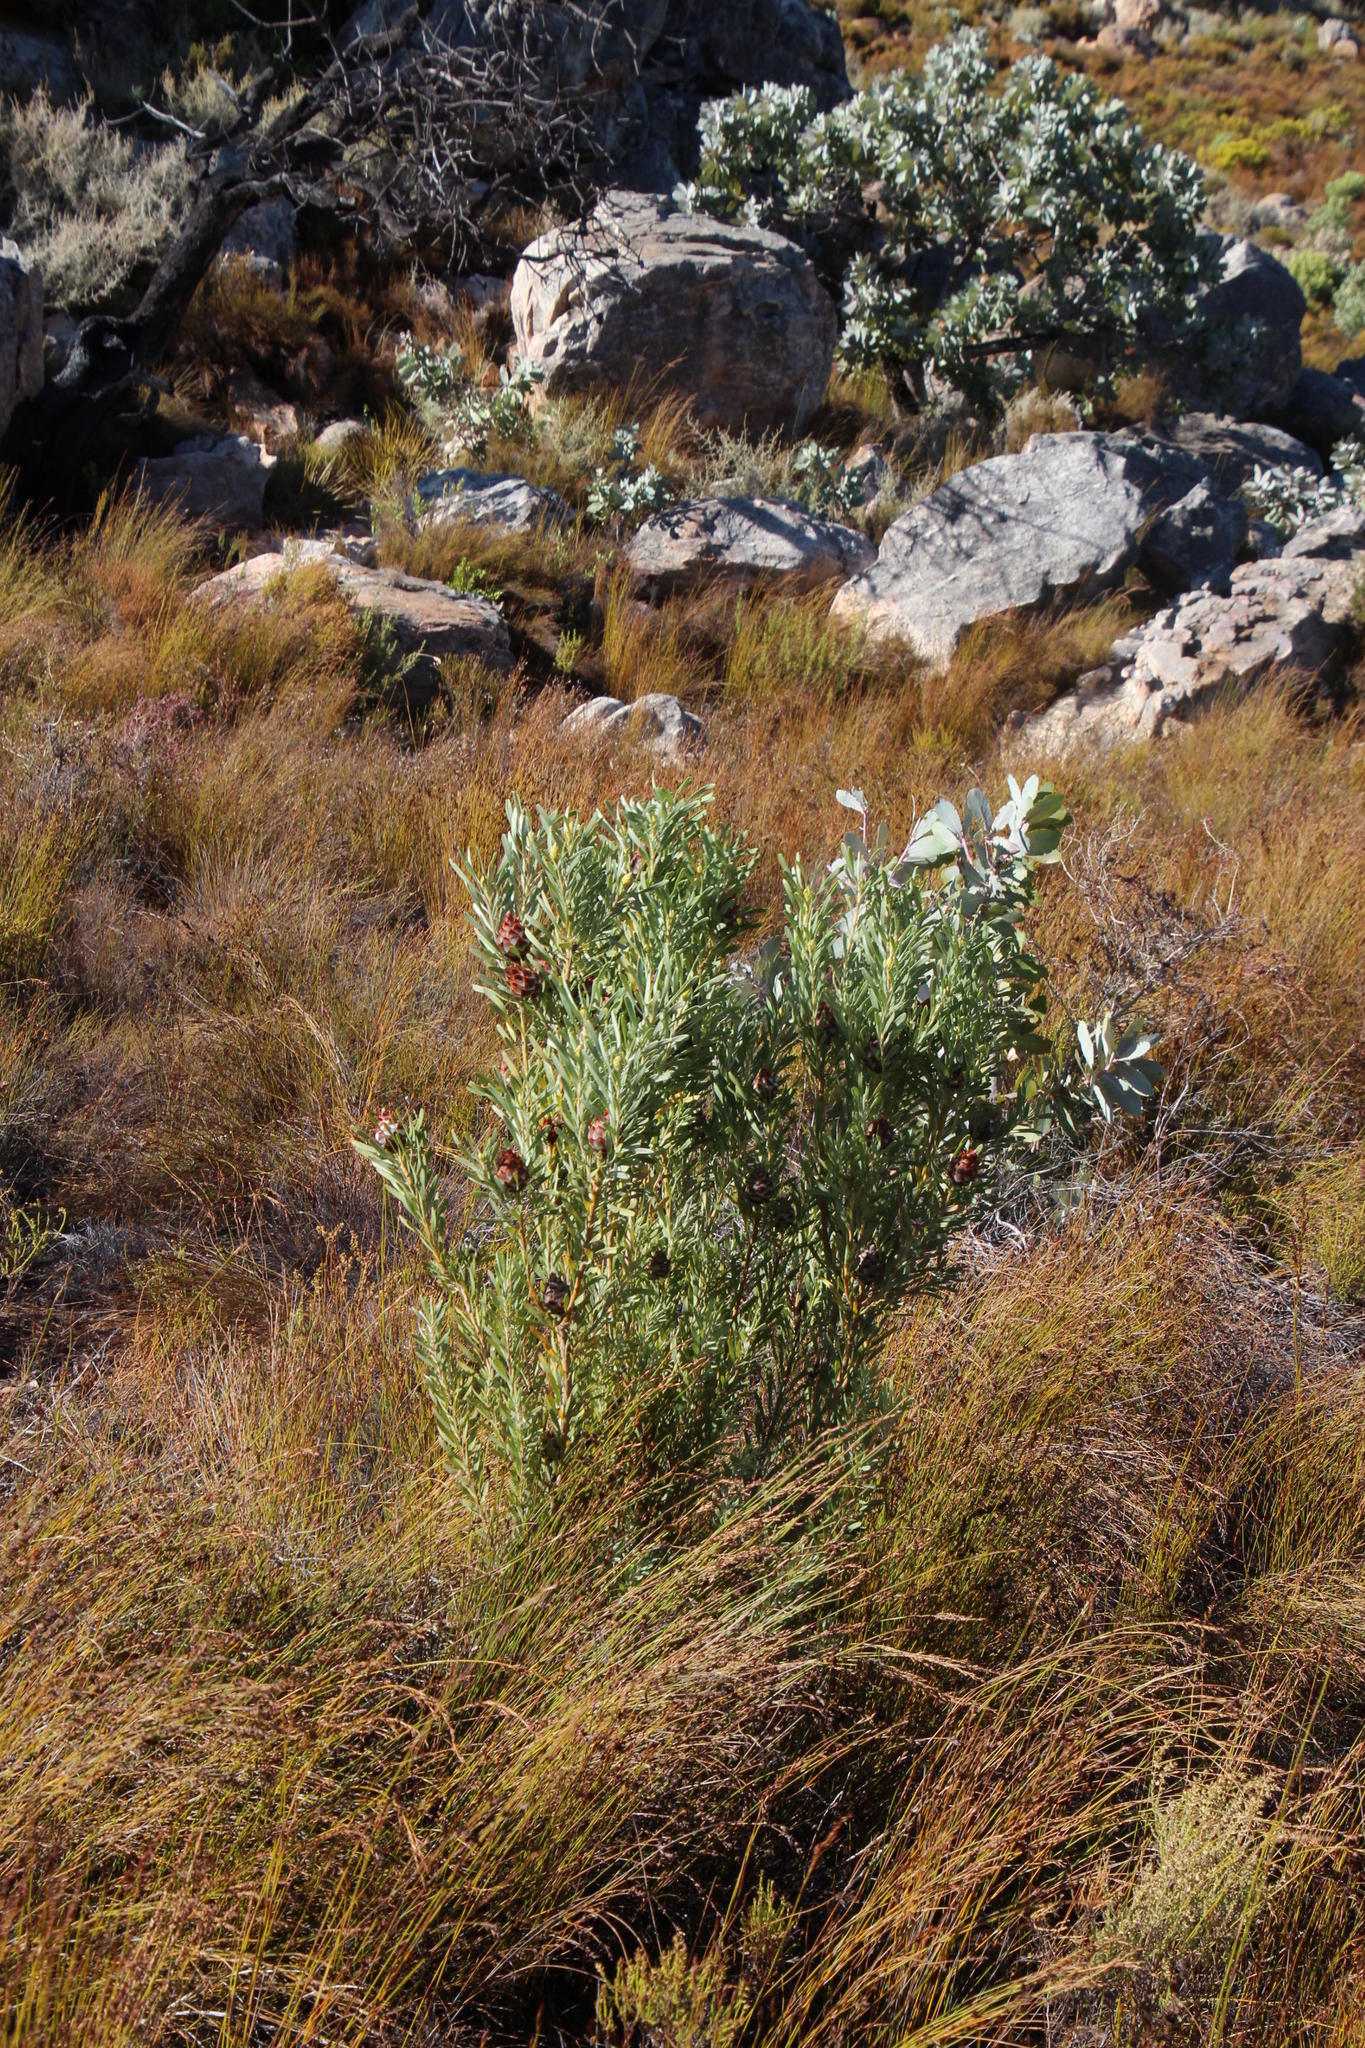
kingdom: Plantae
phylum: Tracheophyta
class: Magnoliopsida
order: Proteales
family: Proteaceae
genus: Leucadendron
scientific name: Leucadendron rubrum
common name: Spinning top
